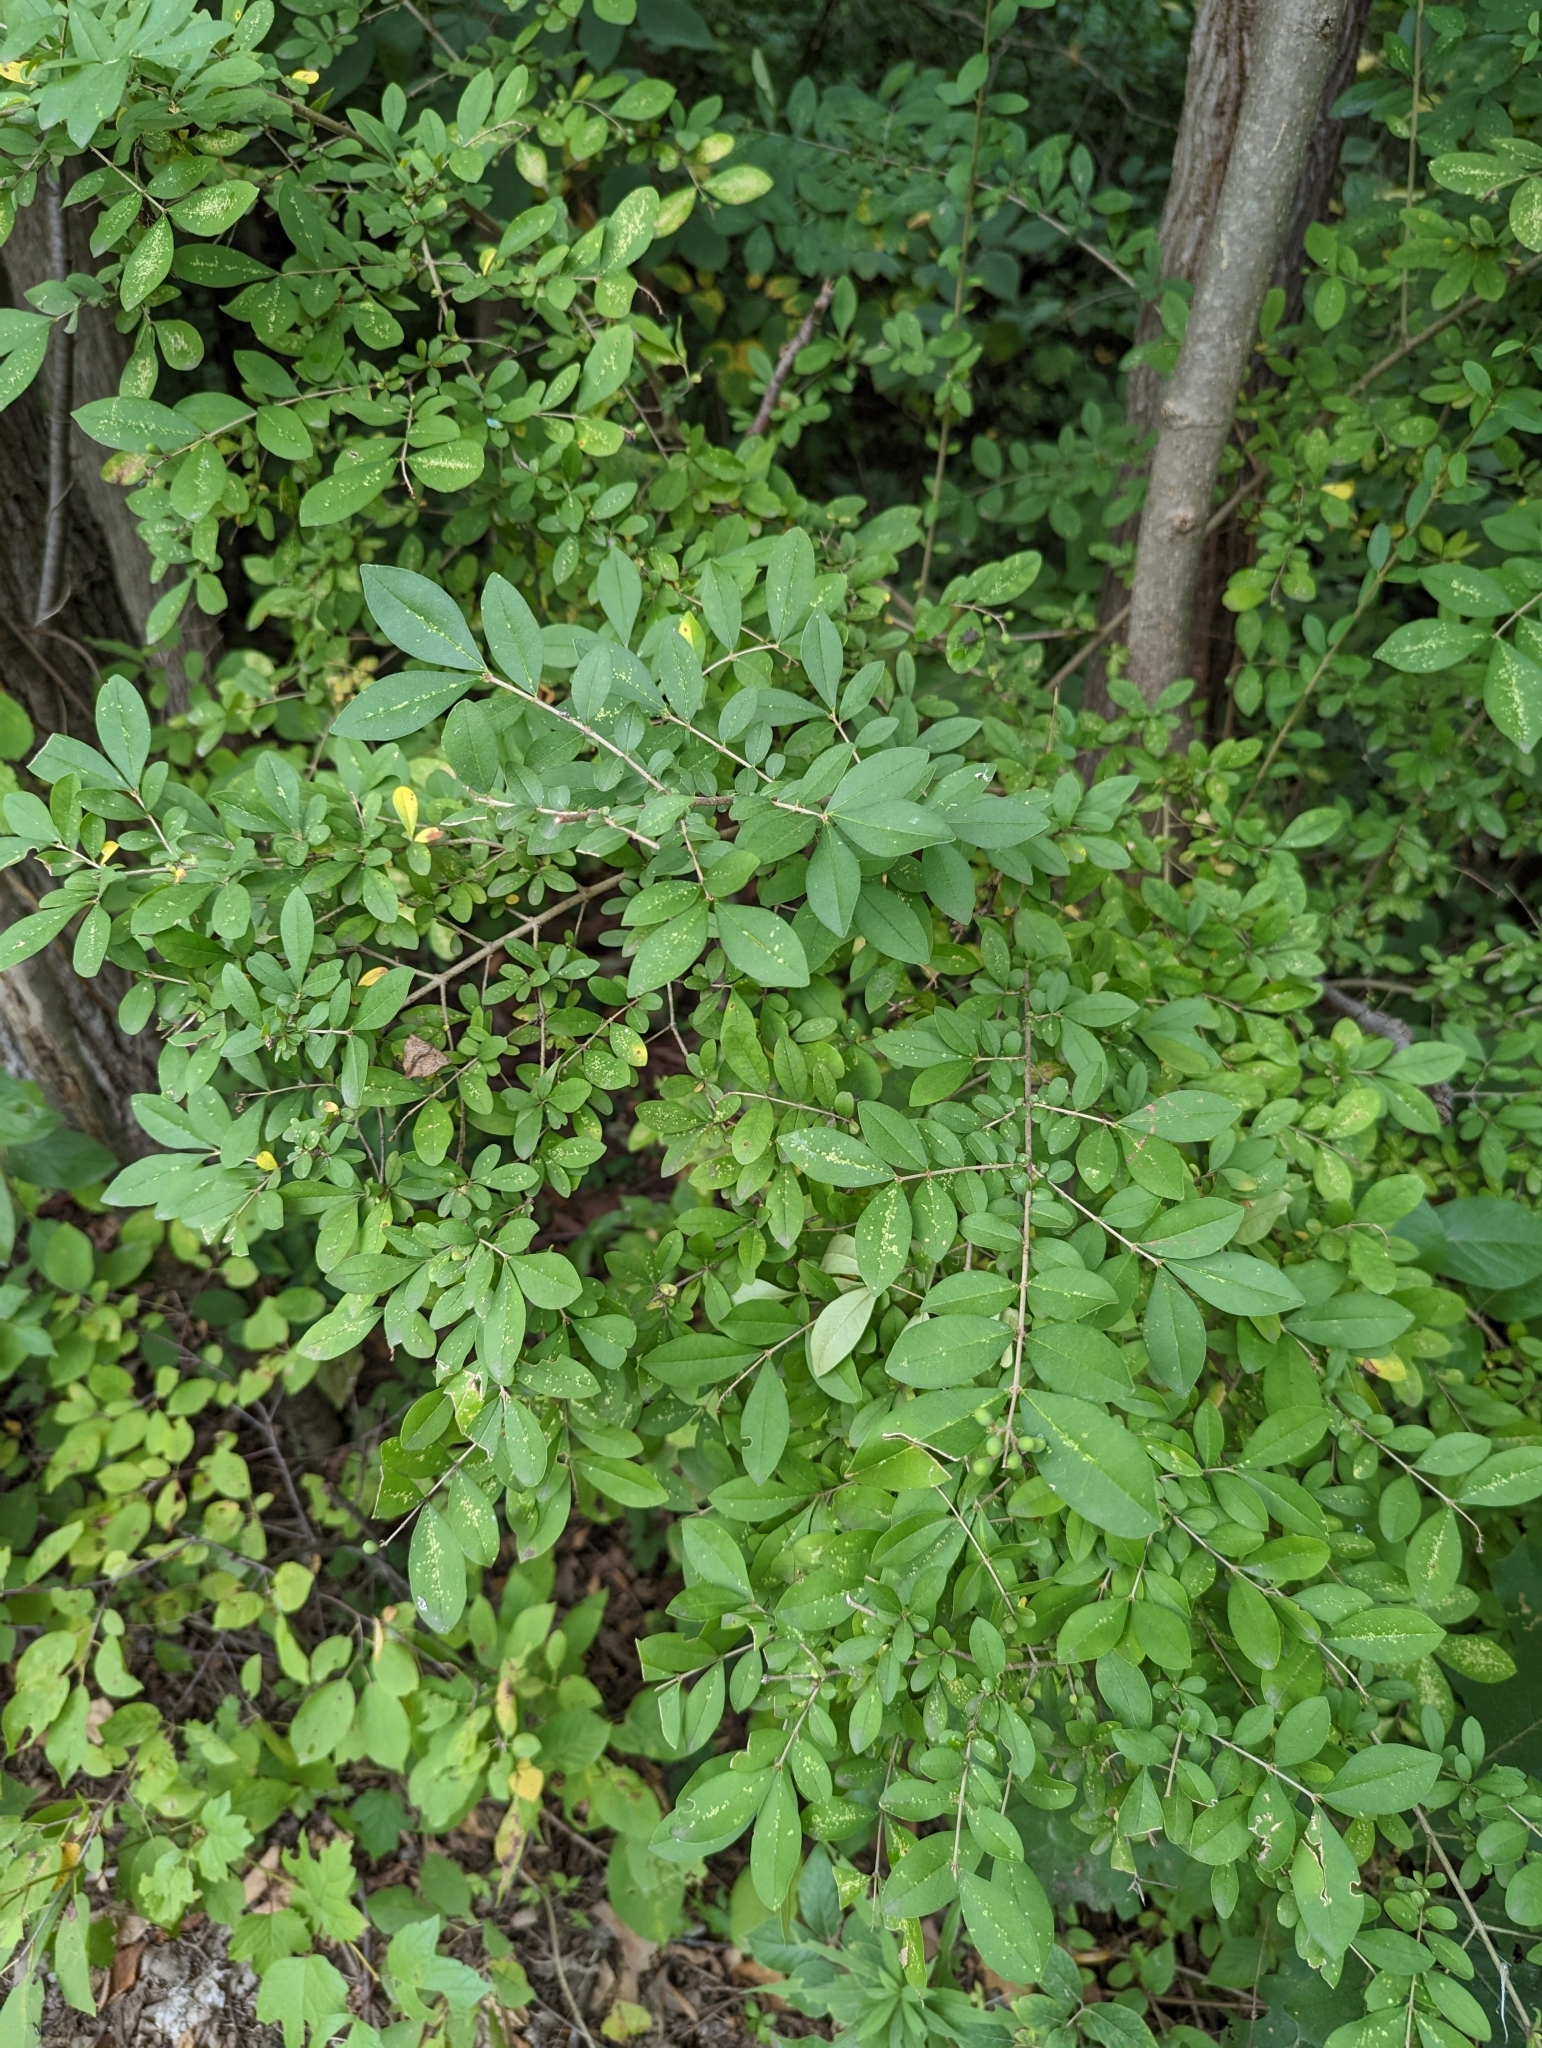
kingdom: Plantae
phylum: Tracheophyta
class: Magnoliopsida
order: Lamiales
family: Oleaceae
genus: Ligustrum
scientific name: Ligustrum obtusifolium
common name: Border privet
